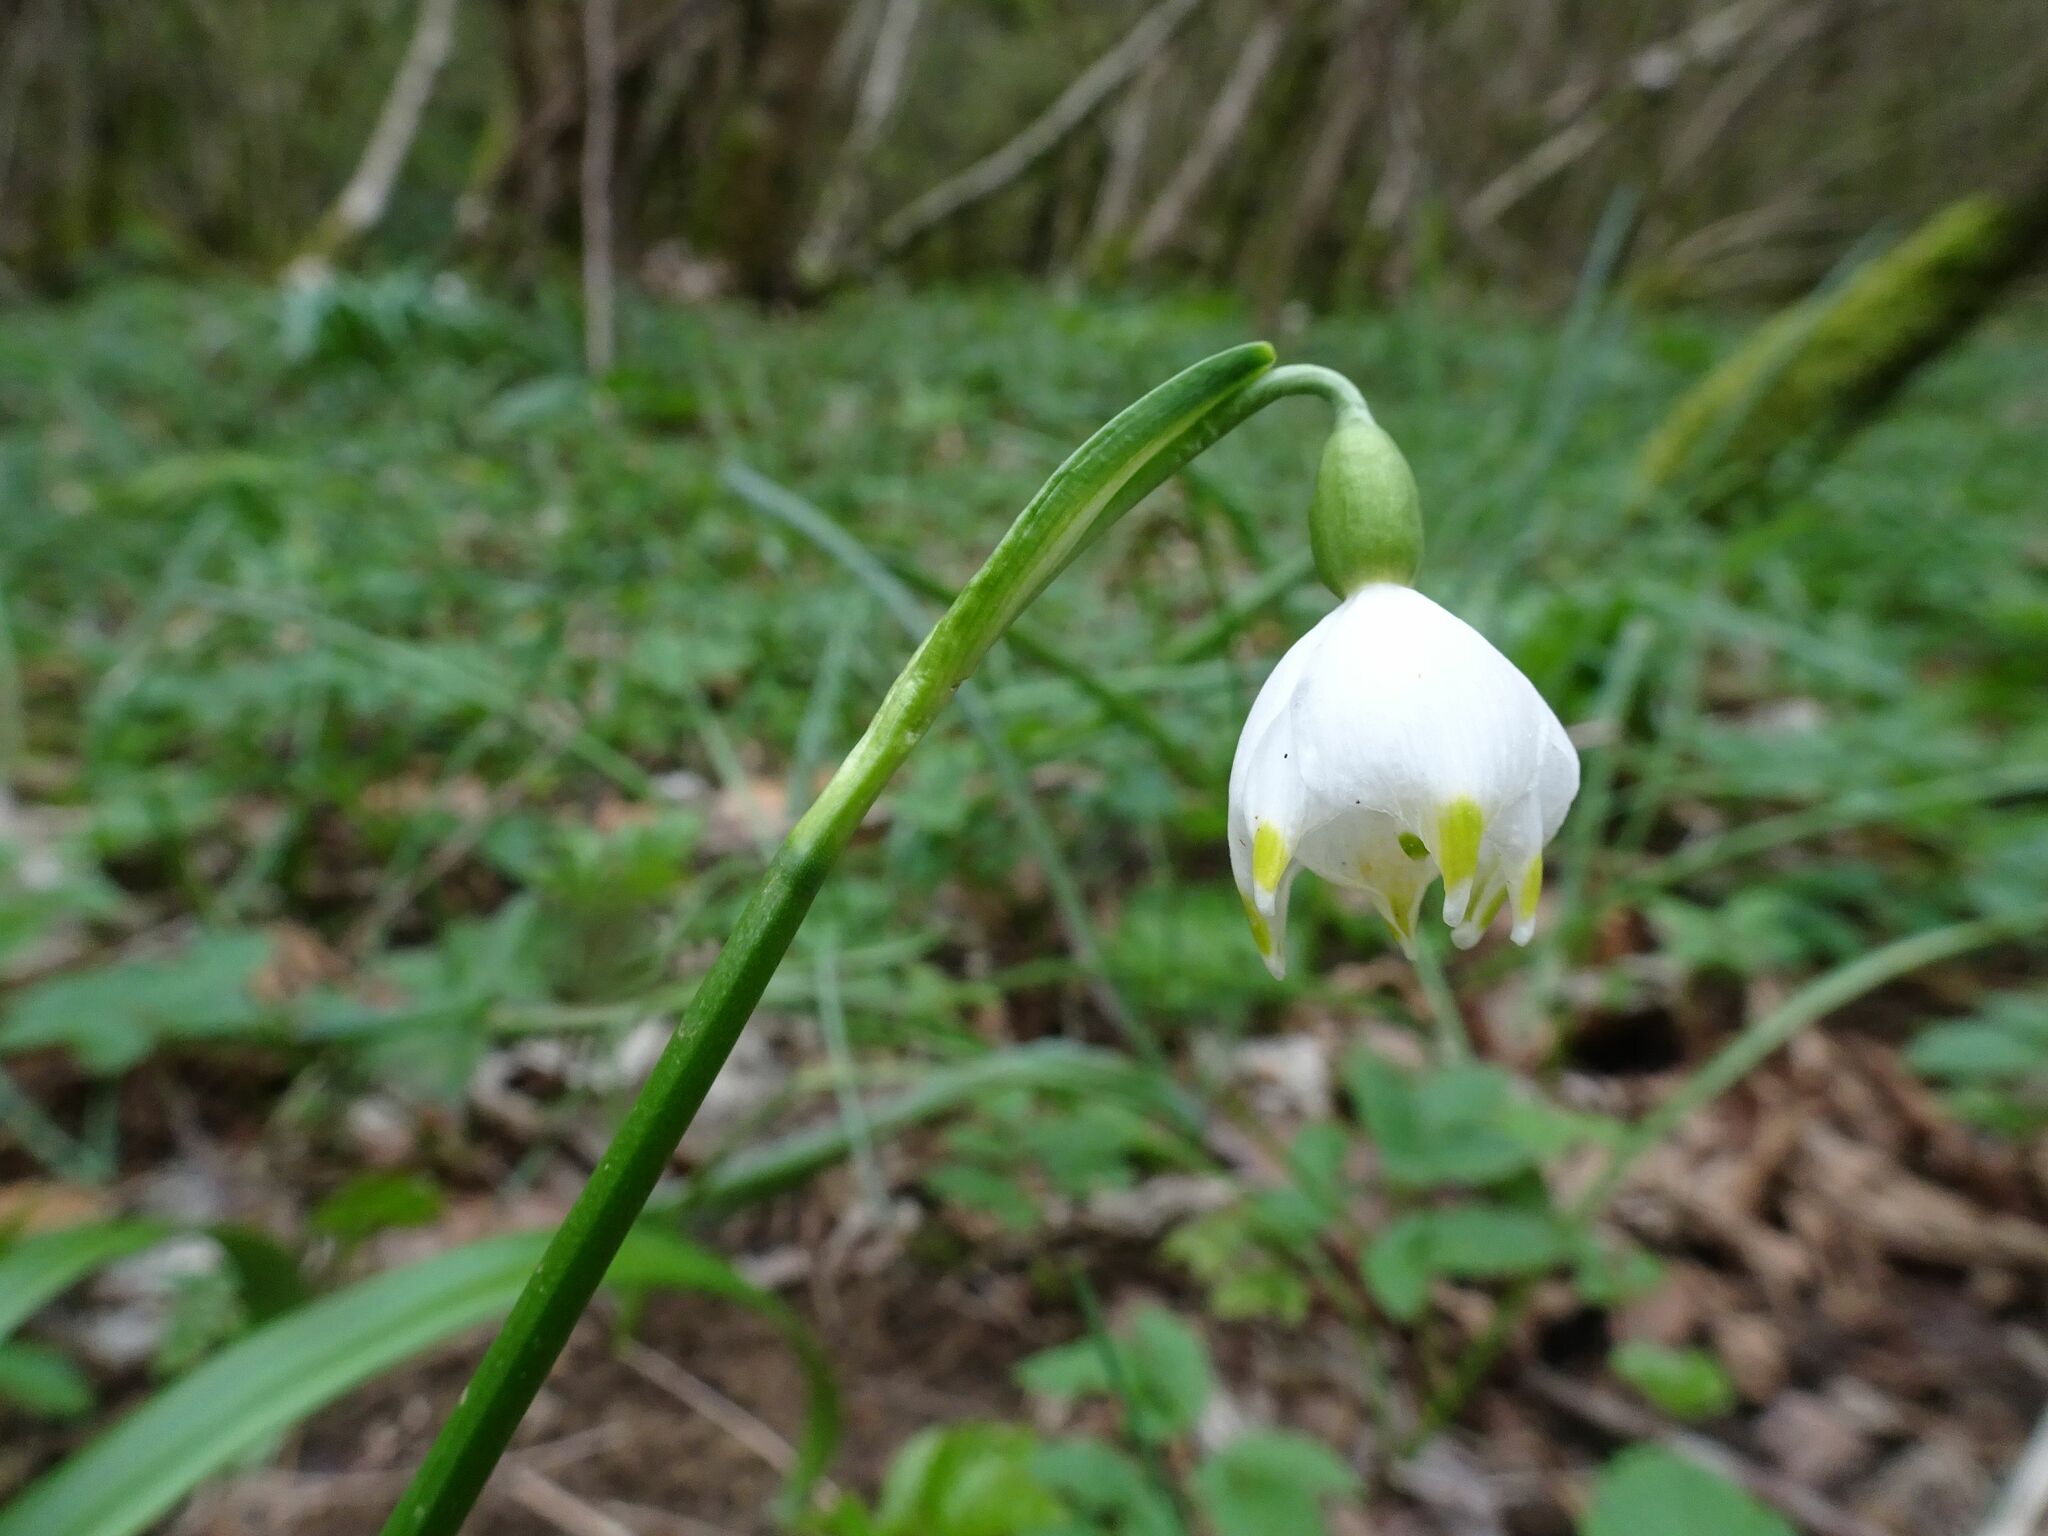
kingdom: Plantae
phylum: Tracheophyta
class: Liliopsida
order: Asparagales
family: Amaryllidaceae
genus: Leucojum
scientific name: Leucojum vernum
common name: Spring snowflake
